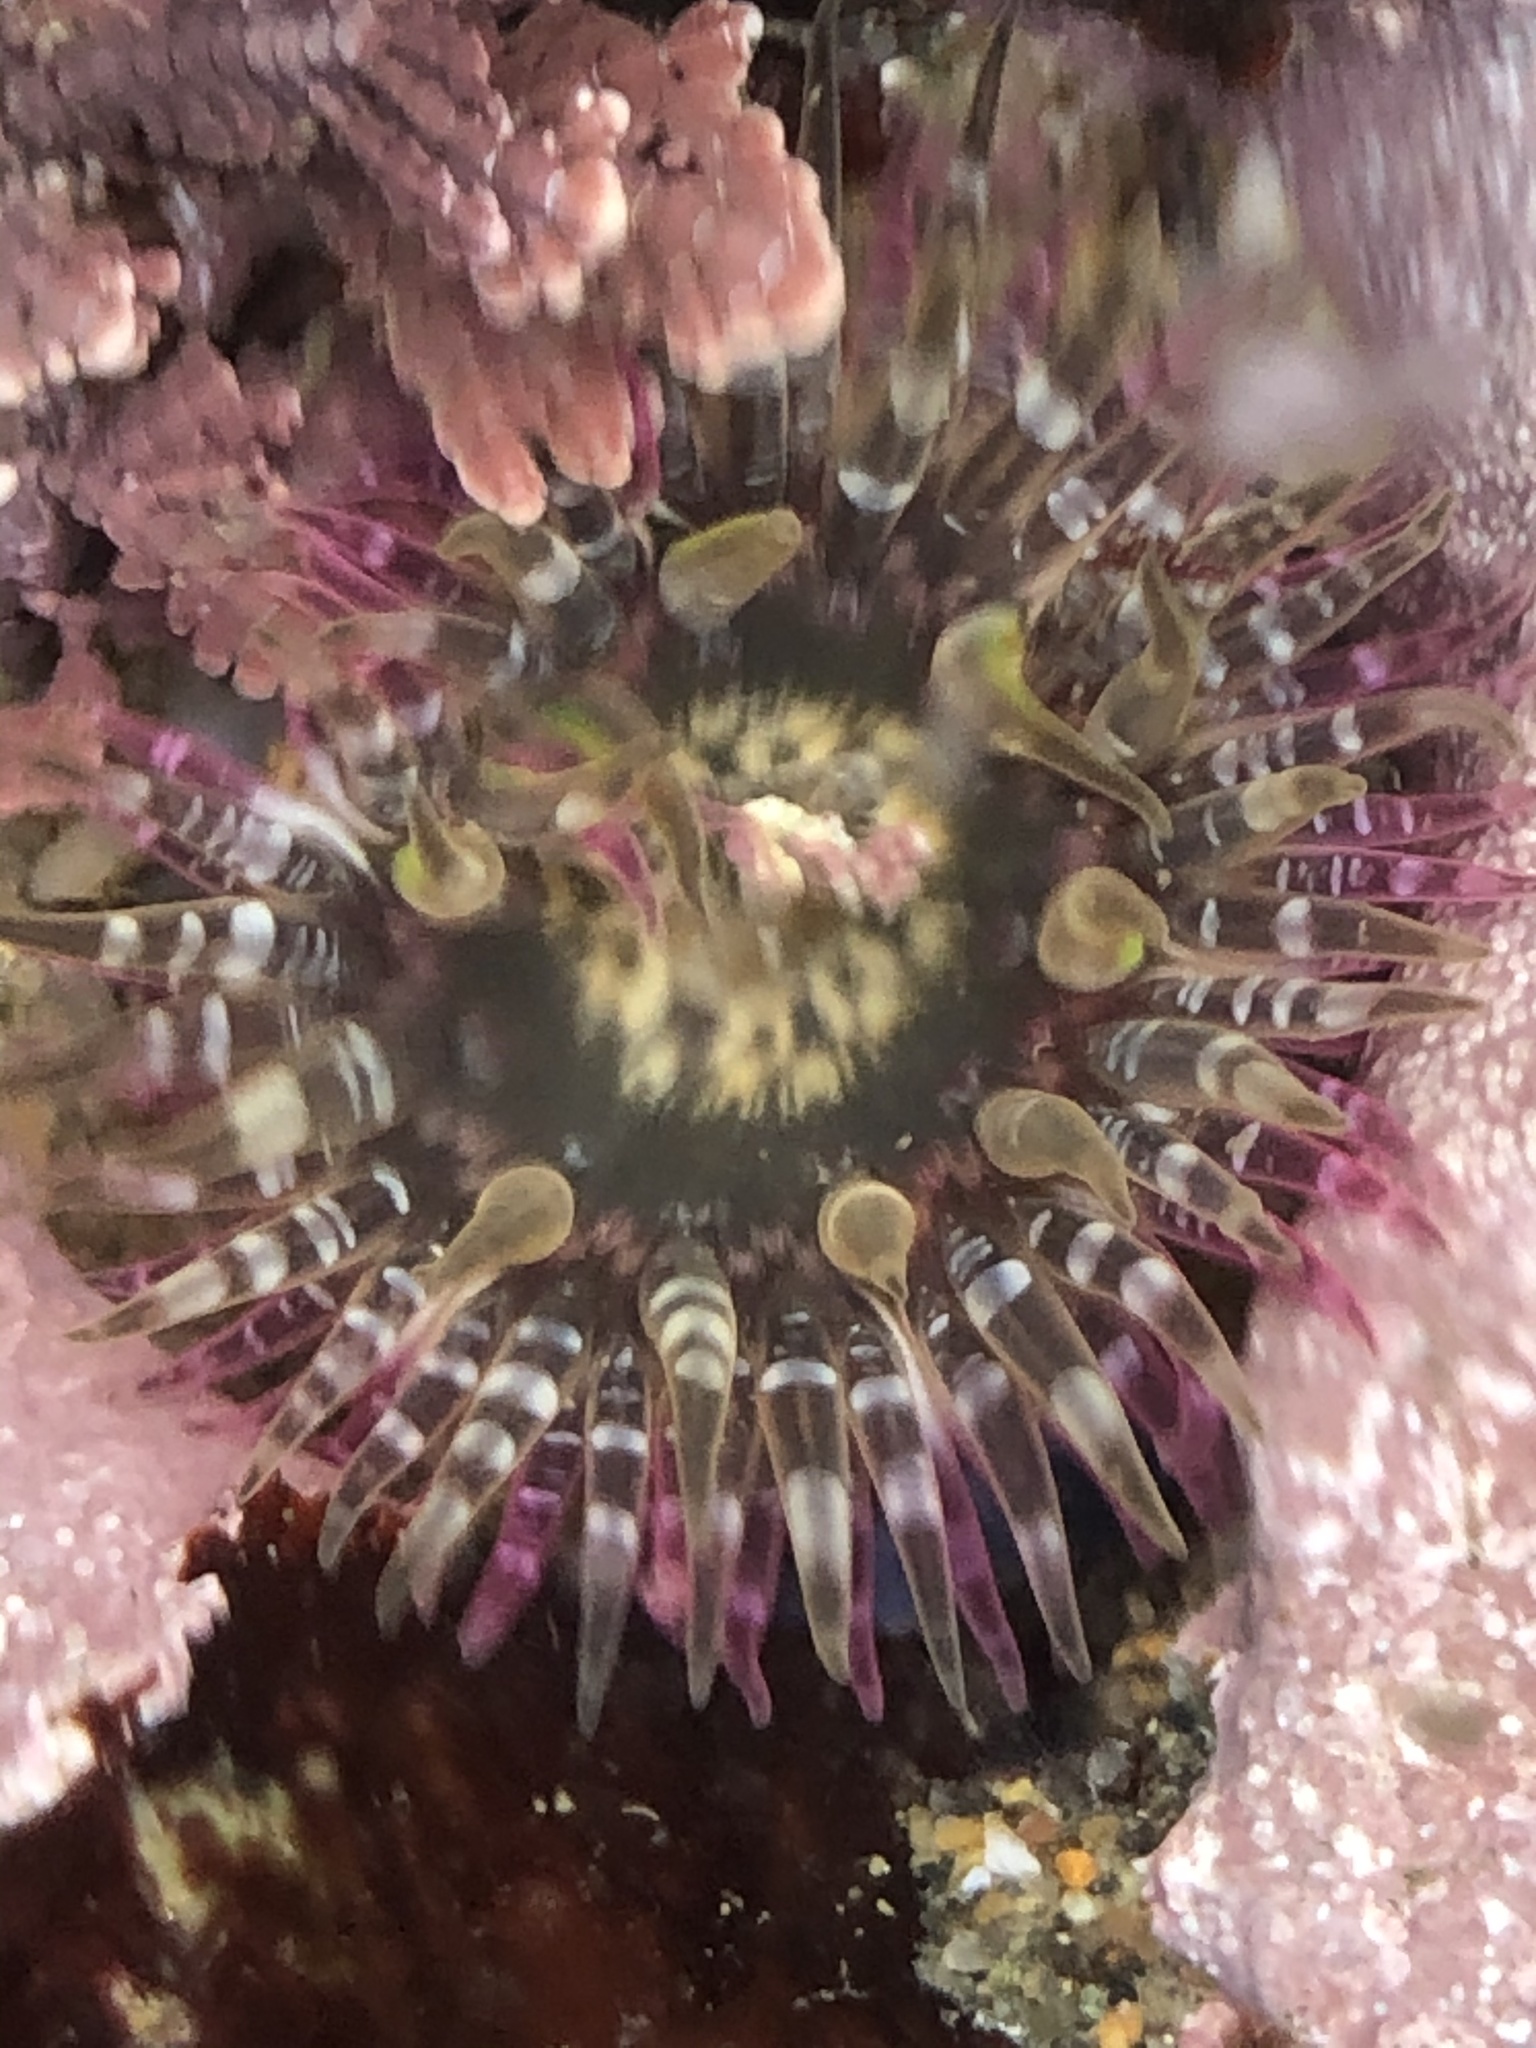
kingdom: Animalia
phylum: Cnidaria
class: Anthozoa
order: Actiniaria
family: Actiniidae
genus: Anthopleura
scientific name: Anthopleura artemisia
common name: Buried sea anemone
